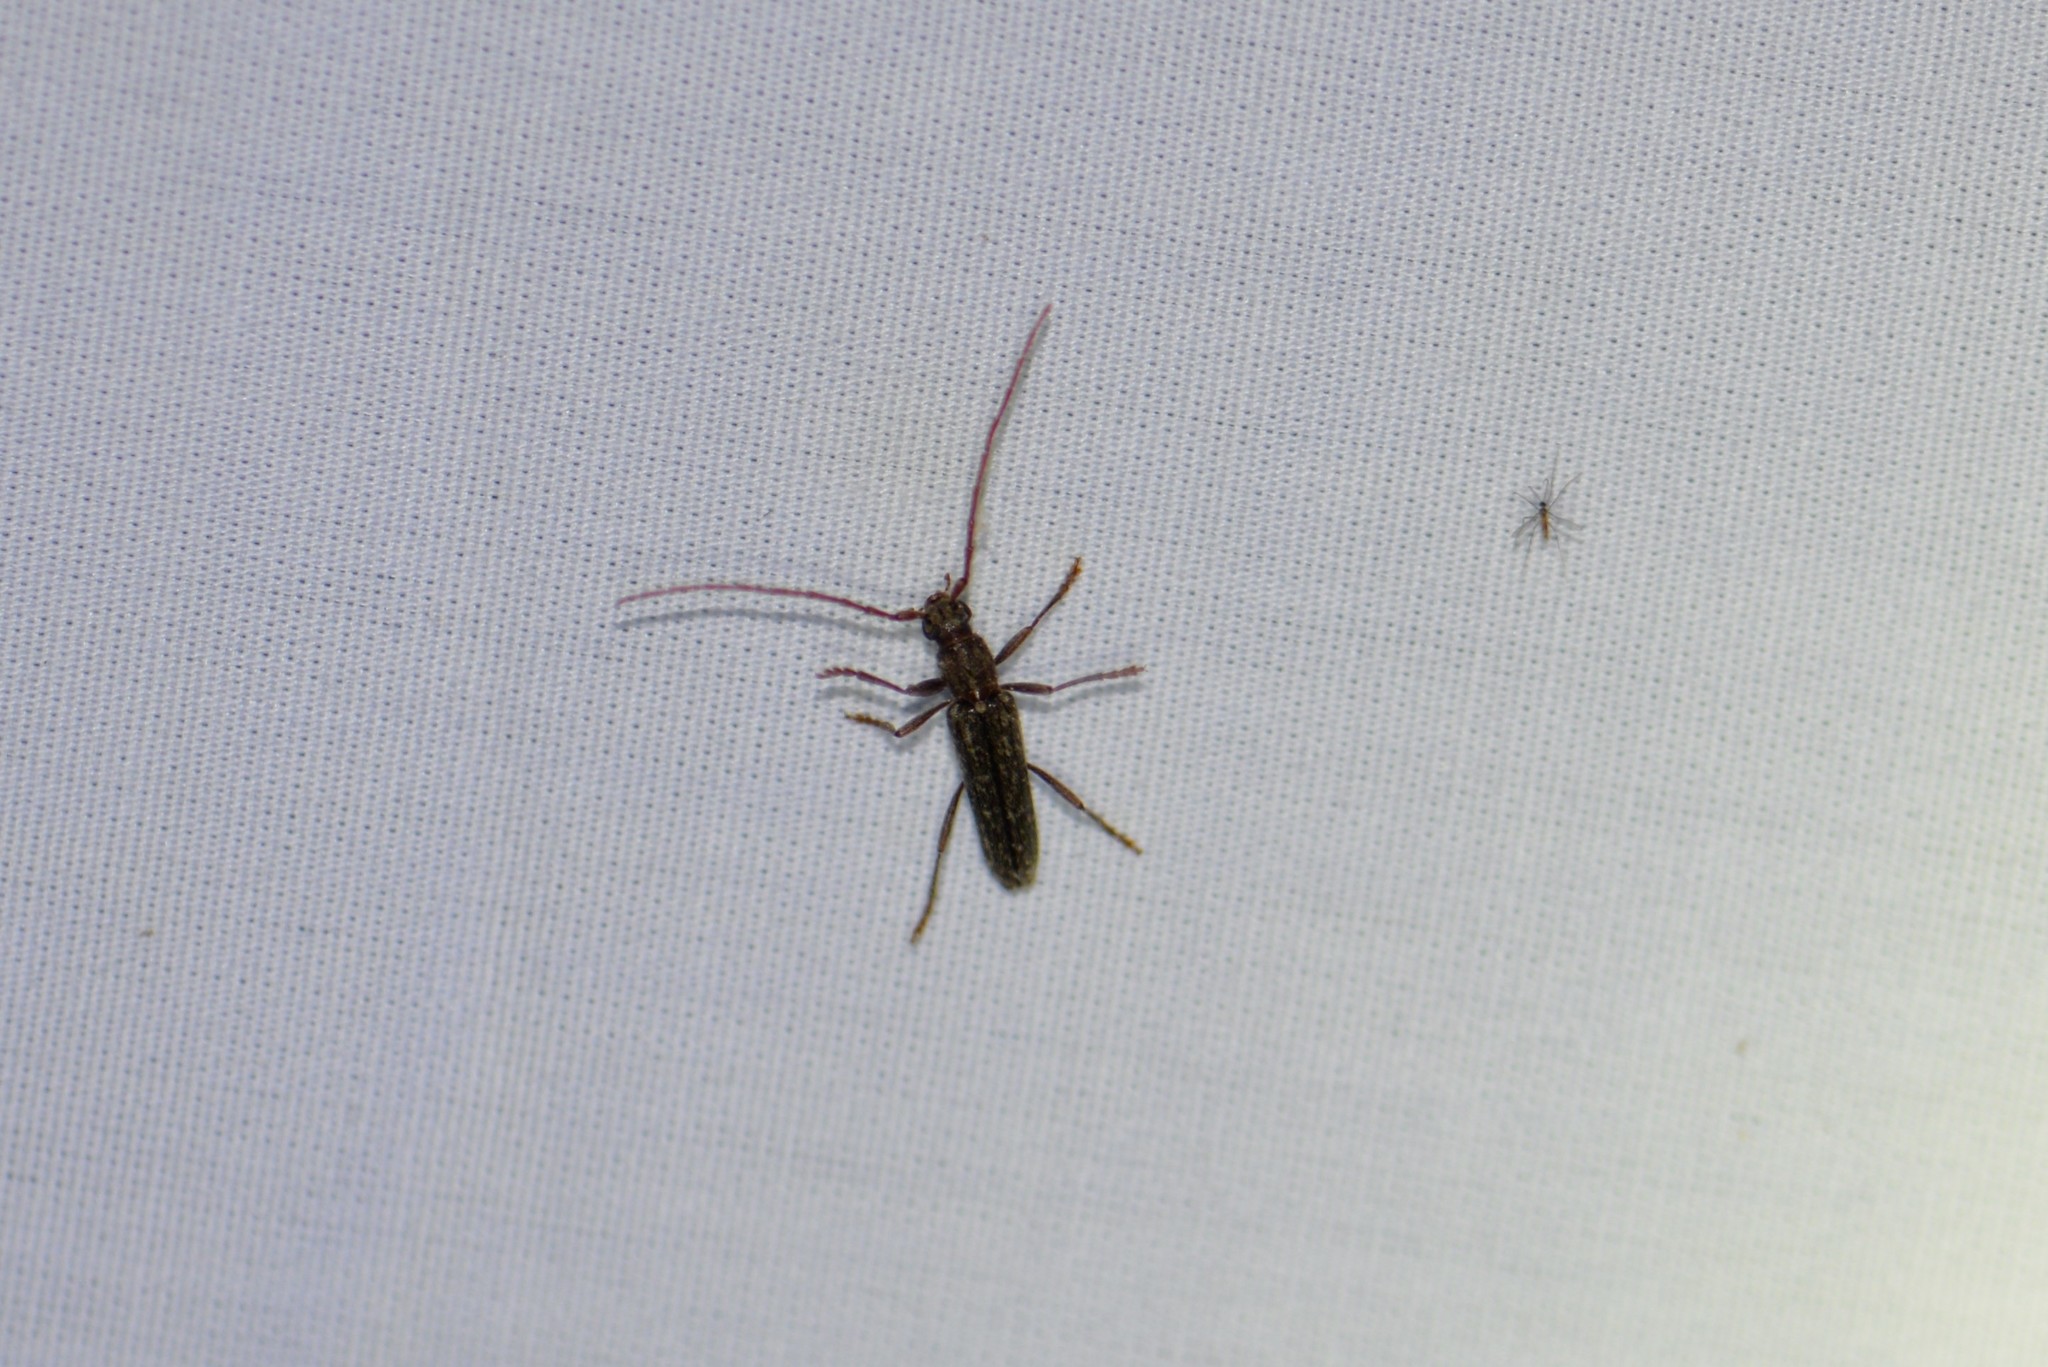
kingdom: Animalia
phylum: Arthropoda
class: Insecta
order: Coleoptera
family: Cerambycidae
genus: Anelaphus
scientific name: Anelaphus villosus
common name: Twig pruner
